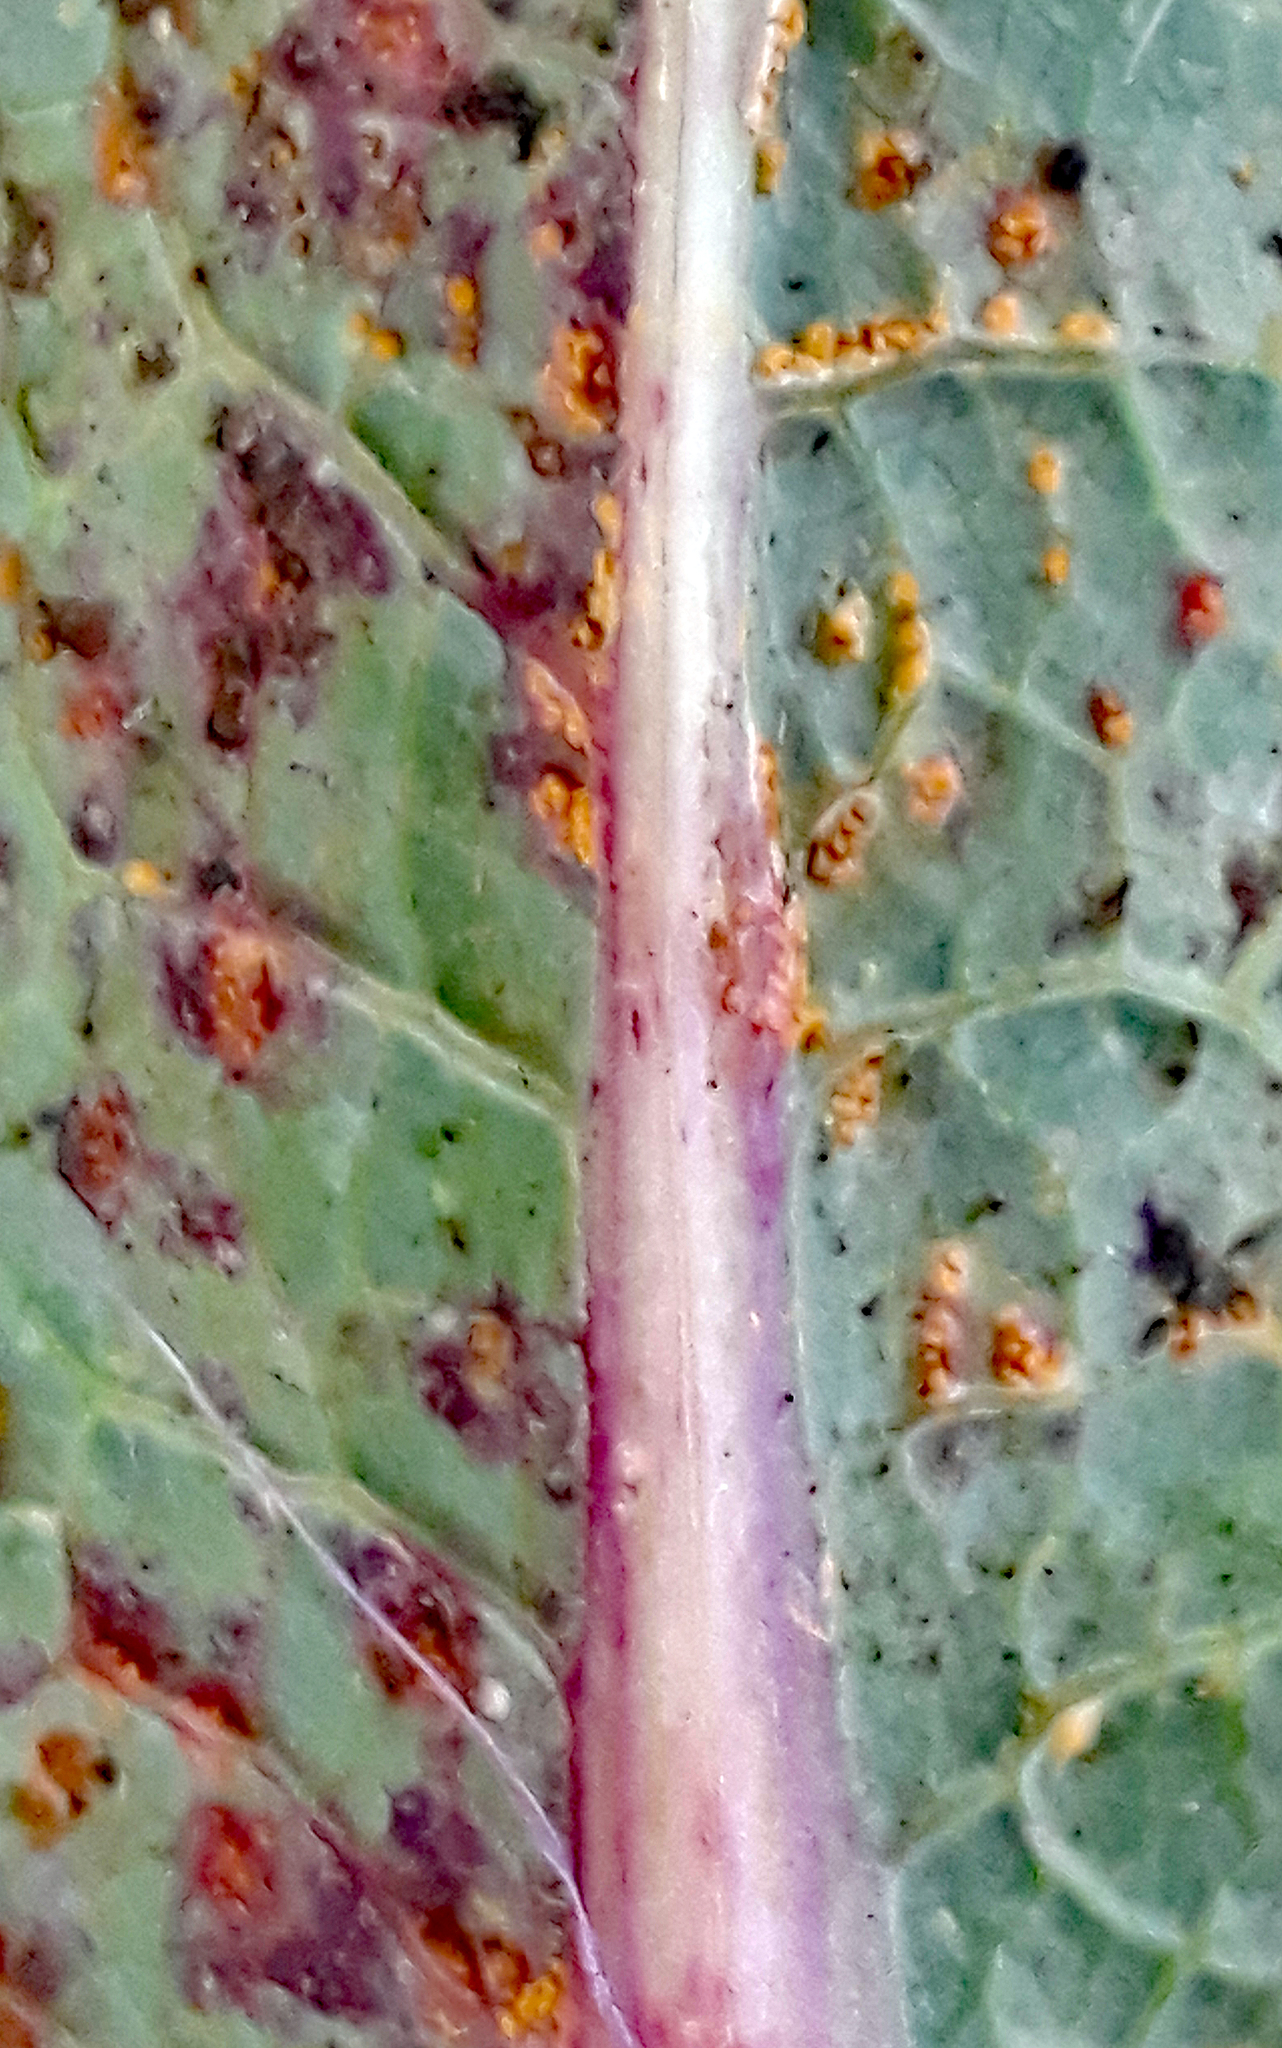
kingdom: Fungi
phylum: Basidiomycota
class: Pucciniomycetes
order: Pucciniales
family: Pucciniaceae
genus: Peristemma
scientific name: Peristemma pseudosphaeria
